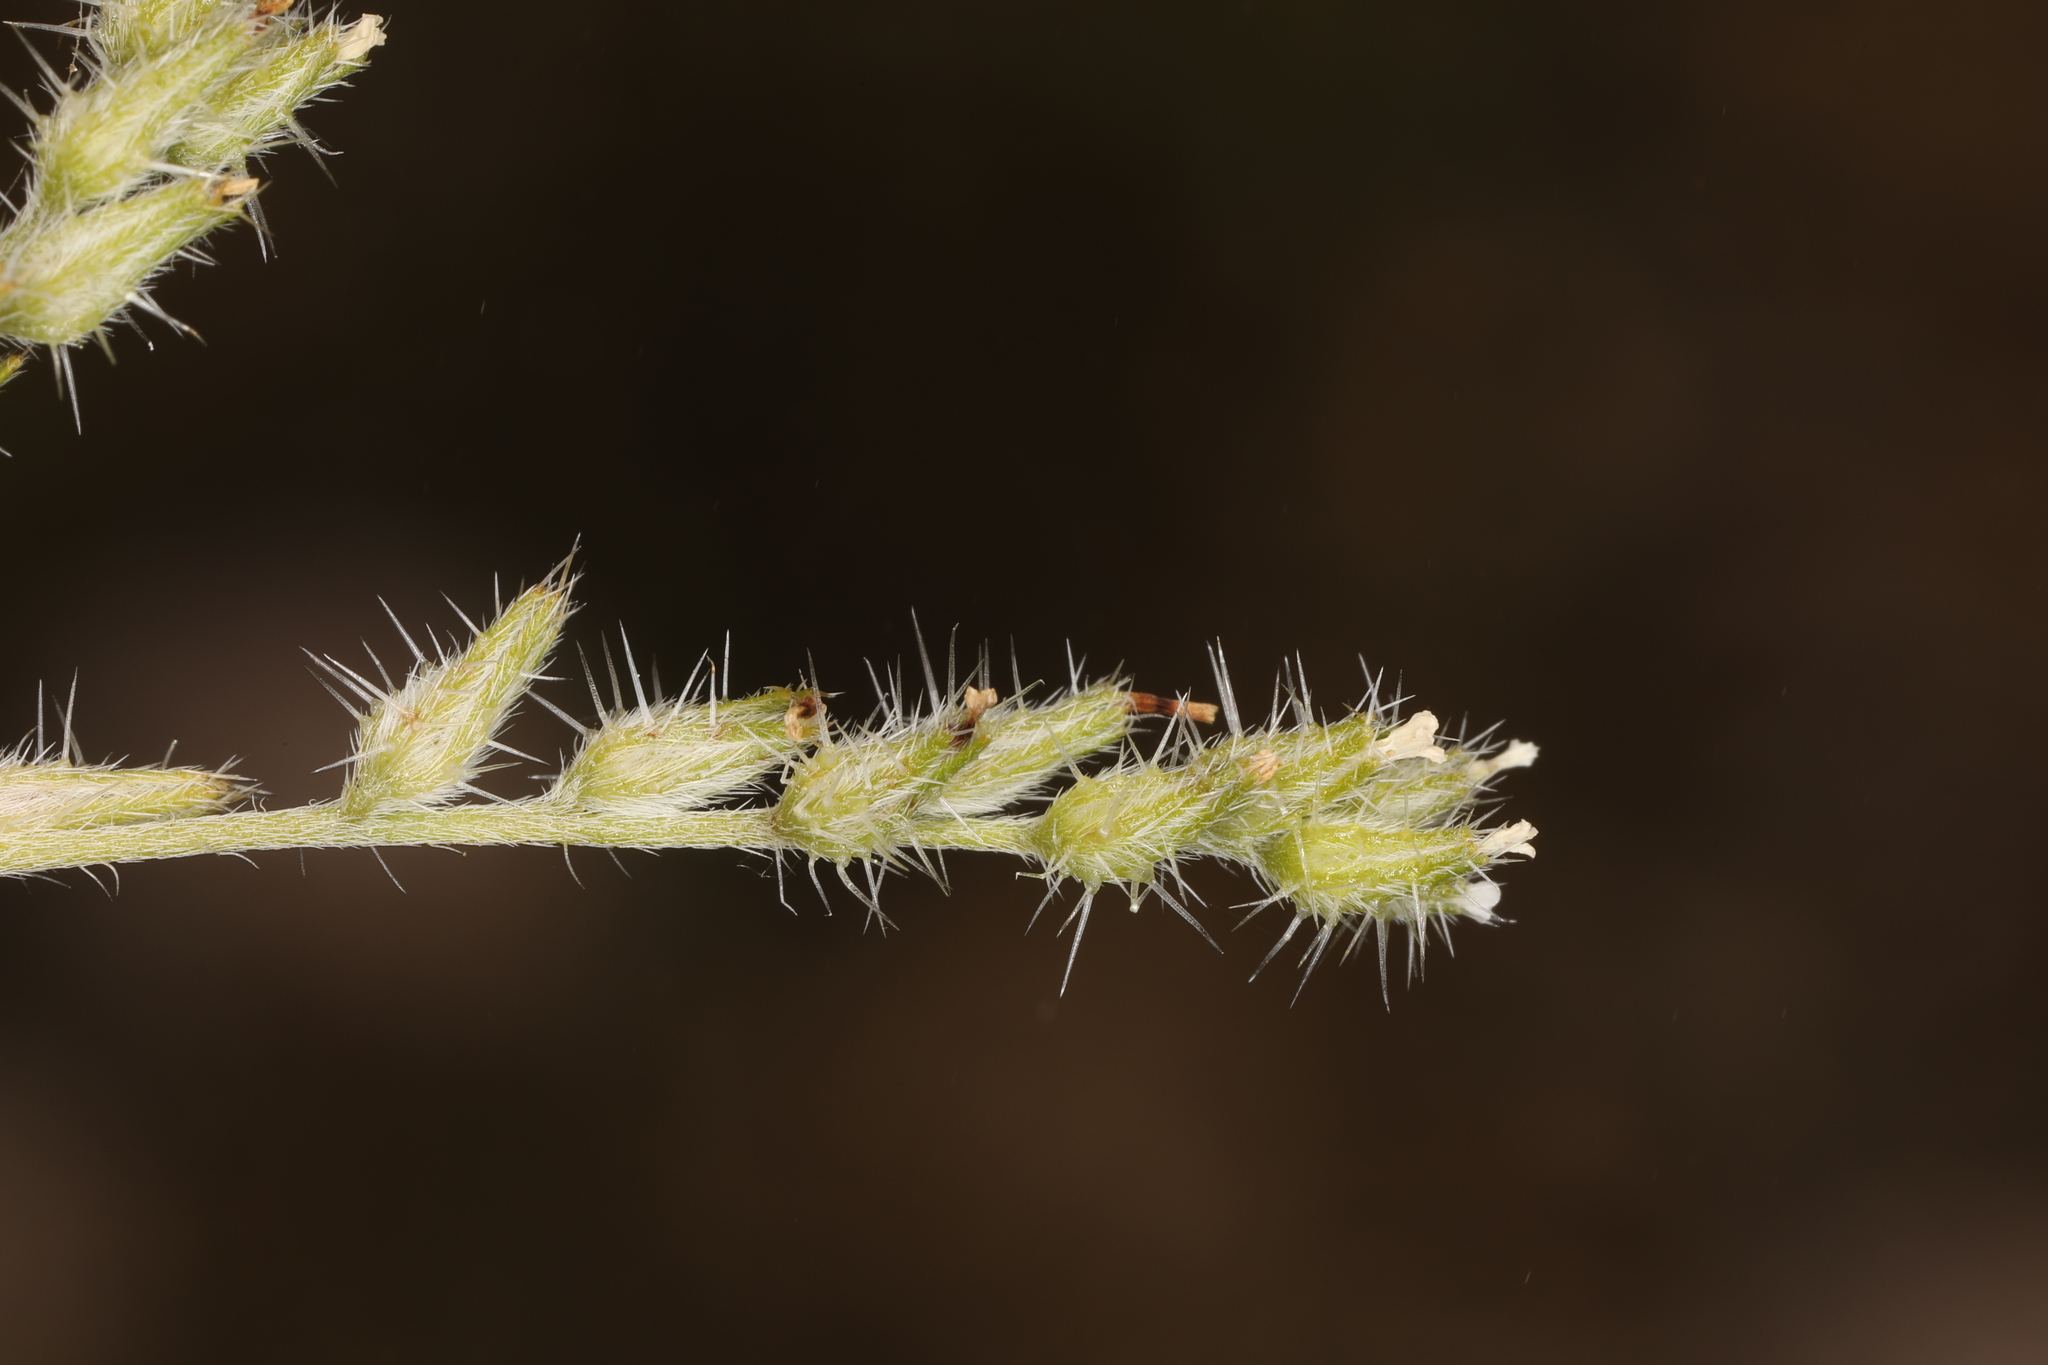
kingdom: Plantae
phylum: Tracheophyta
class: Magnoliopsida
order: Boraginales
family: Boraginaceae
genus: Cryptantha
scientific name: Cryptantha scoparia
